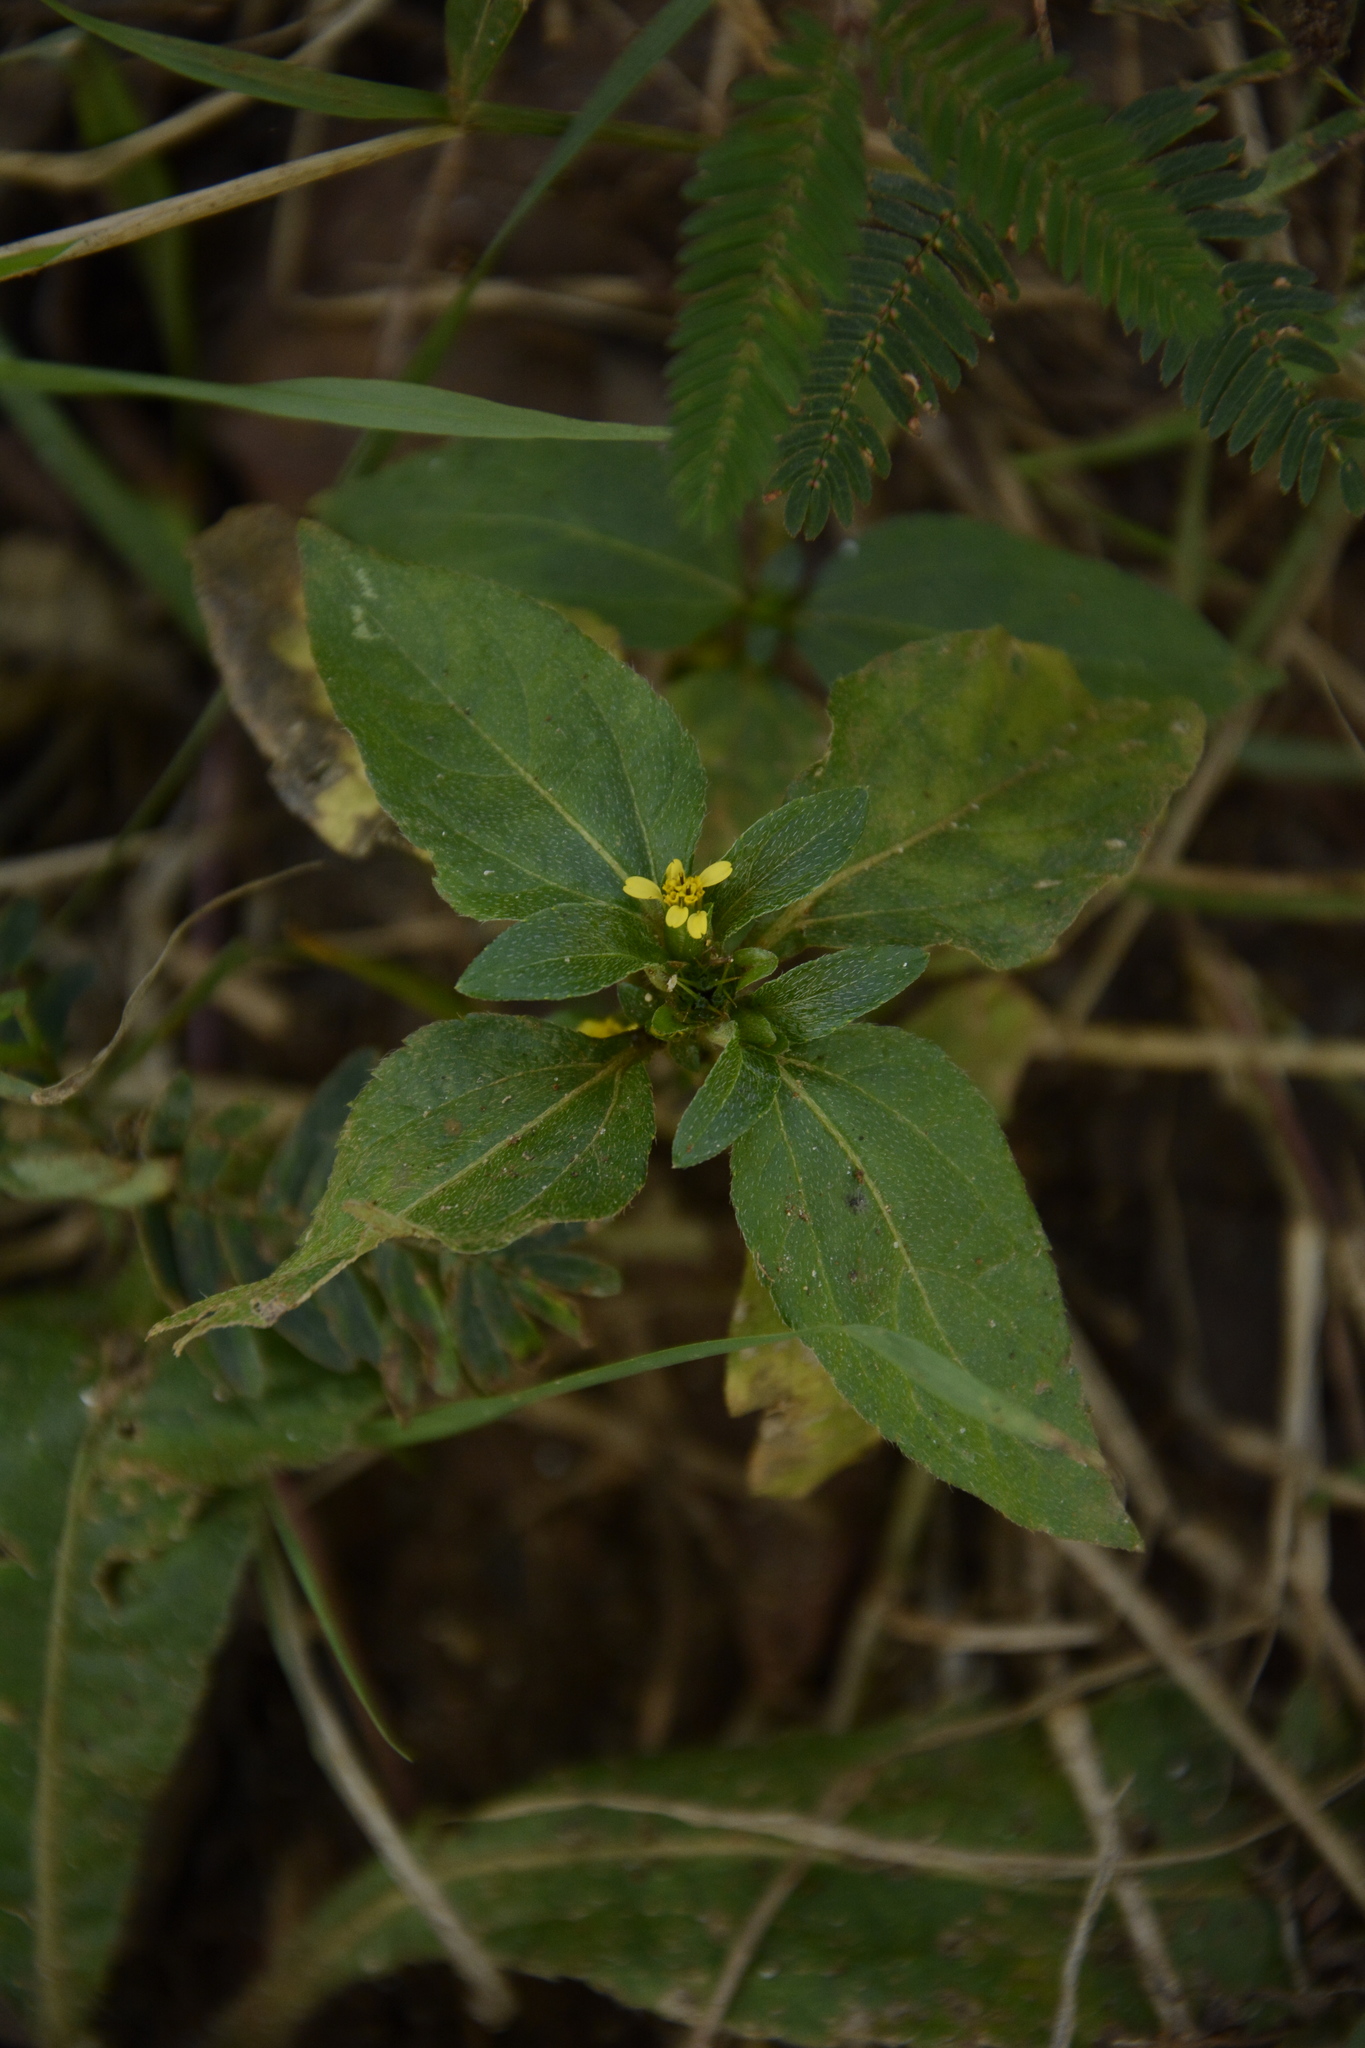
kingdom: Plantae
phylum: Tracheophyta
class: Magnoliopsida
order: Asterales
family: Asteraceae
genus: Synedrella
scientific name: Synedrella nodiflora
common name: Nodeweed
